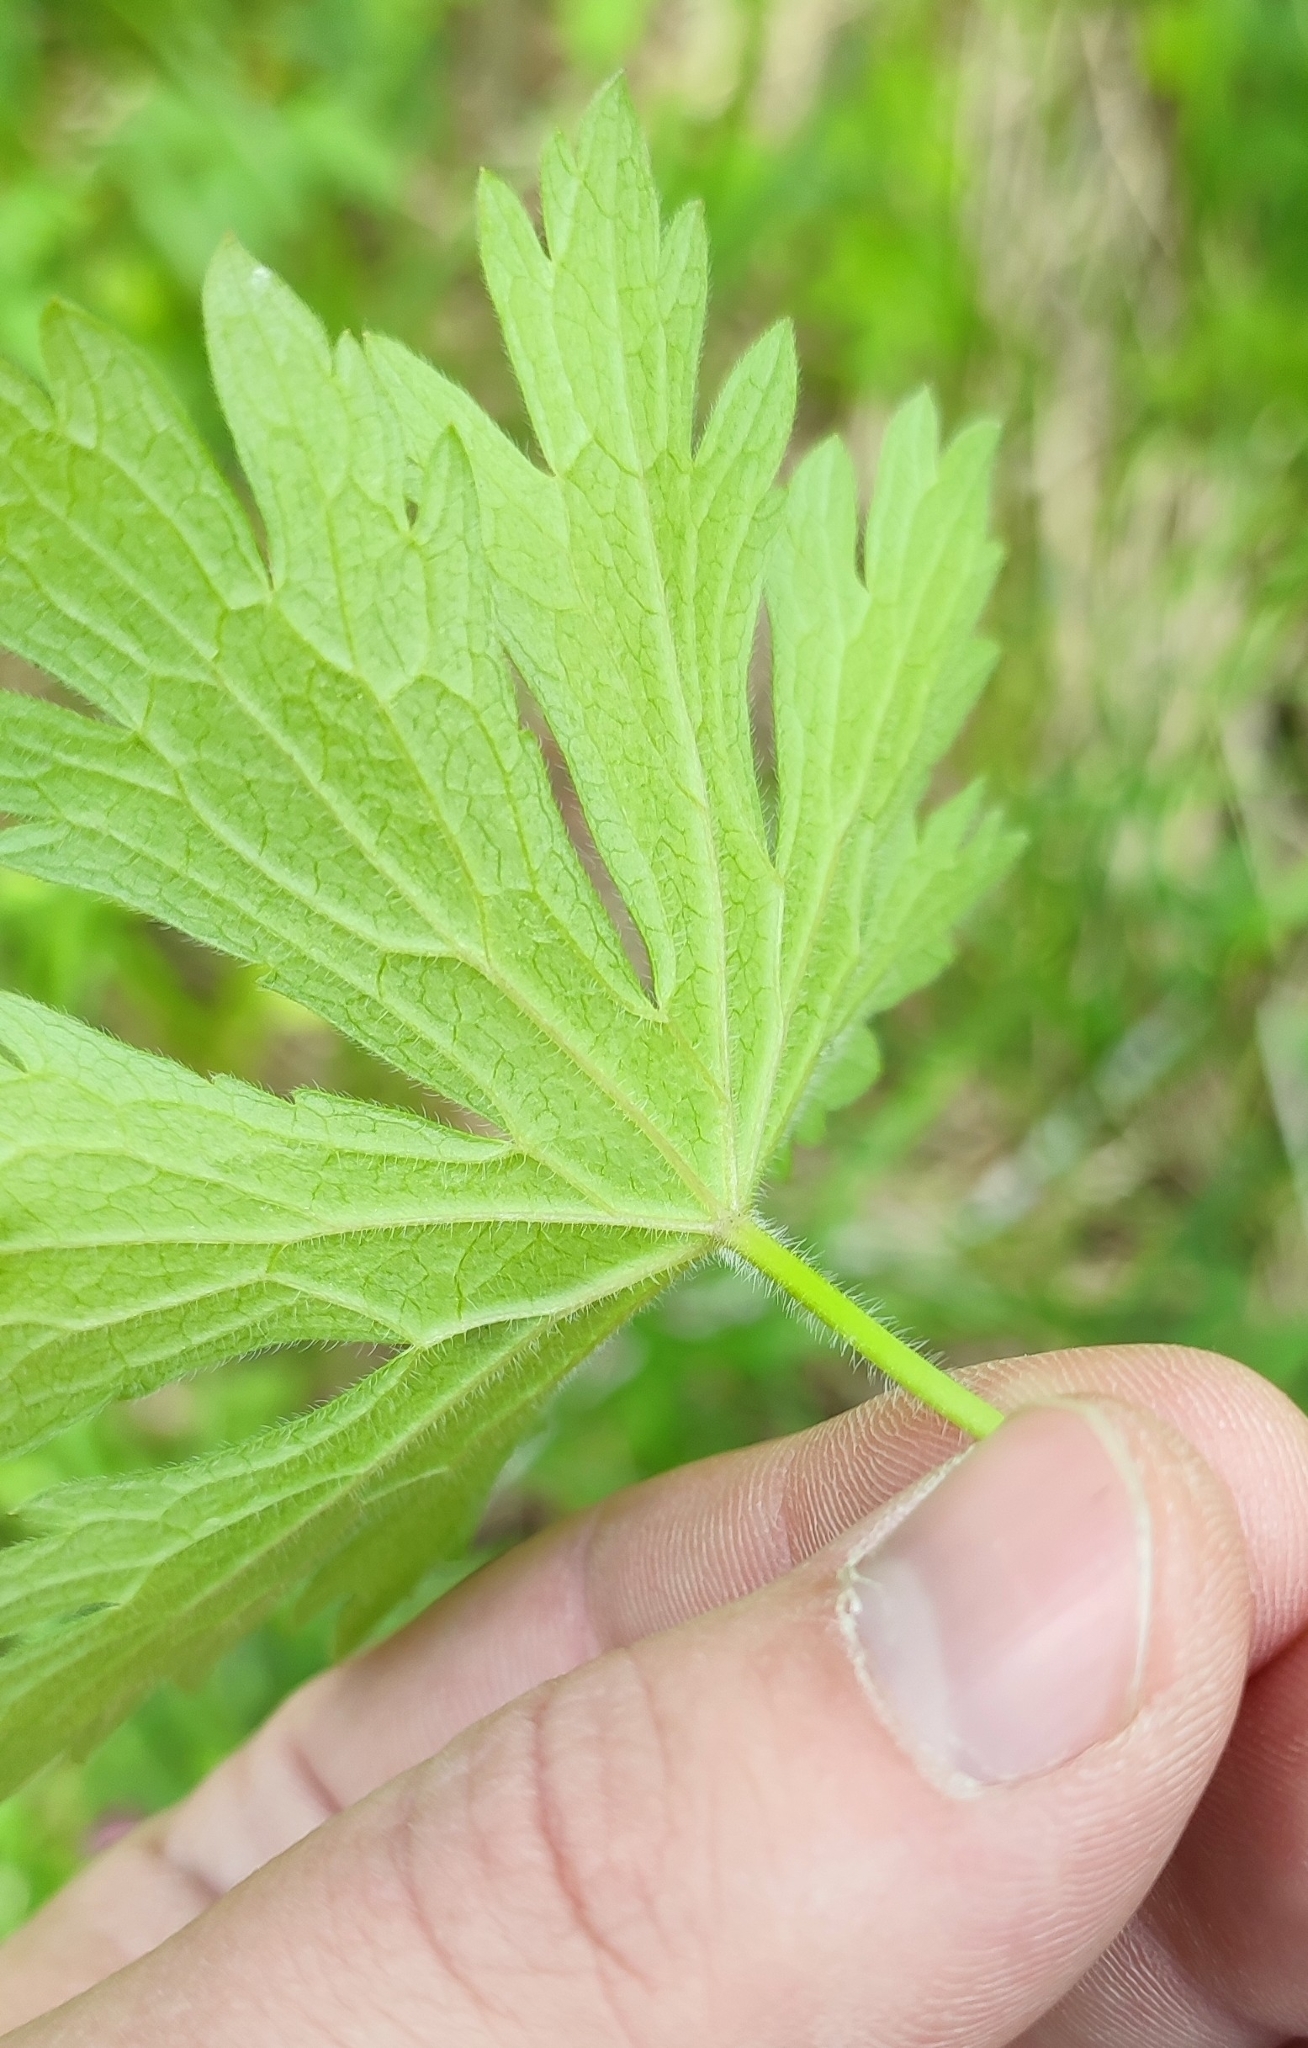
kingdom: Plantae
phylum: Tracheophyta
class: Magnoliopsida
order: Geraniales
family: Geraniaceae
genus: Geranium
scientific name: Geranium pratense
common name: Meadow crane's-bill
